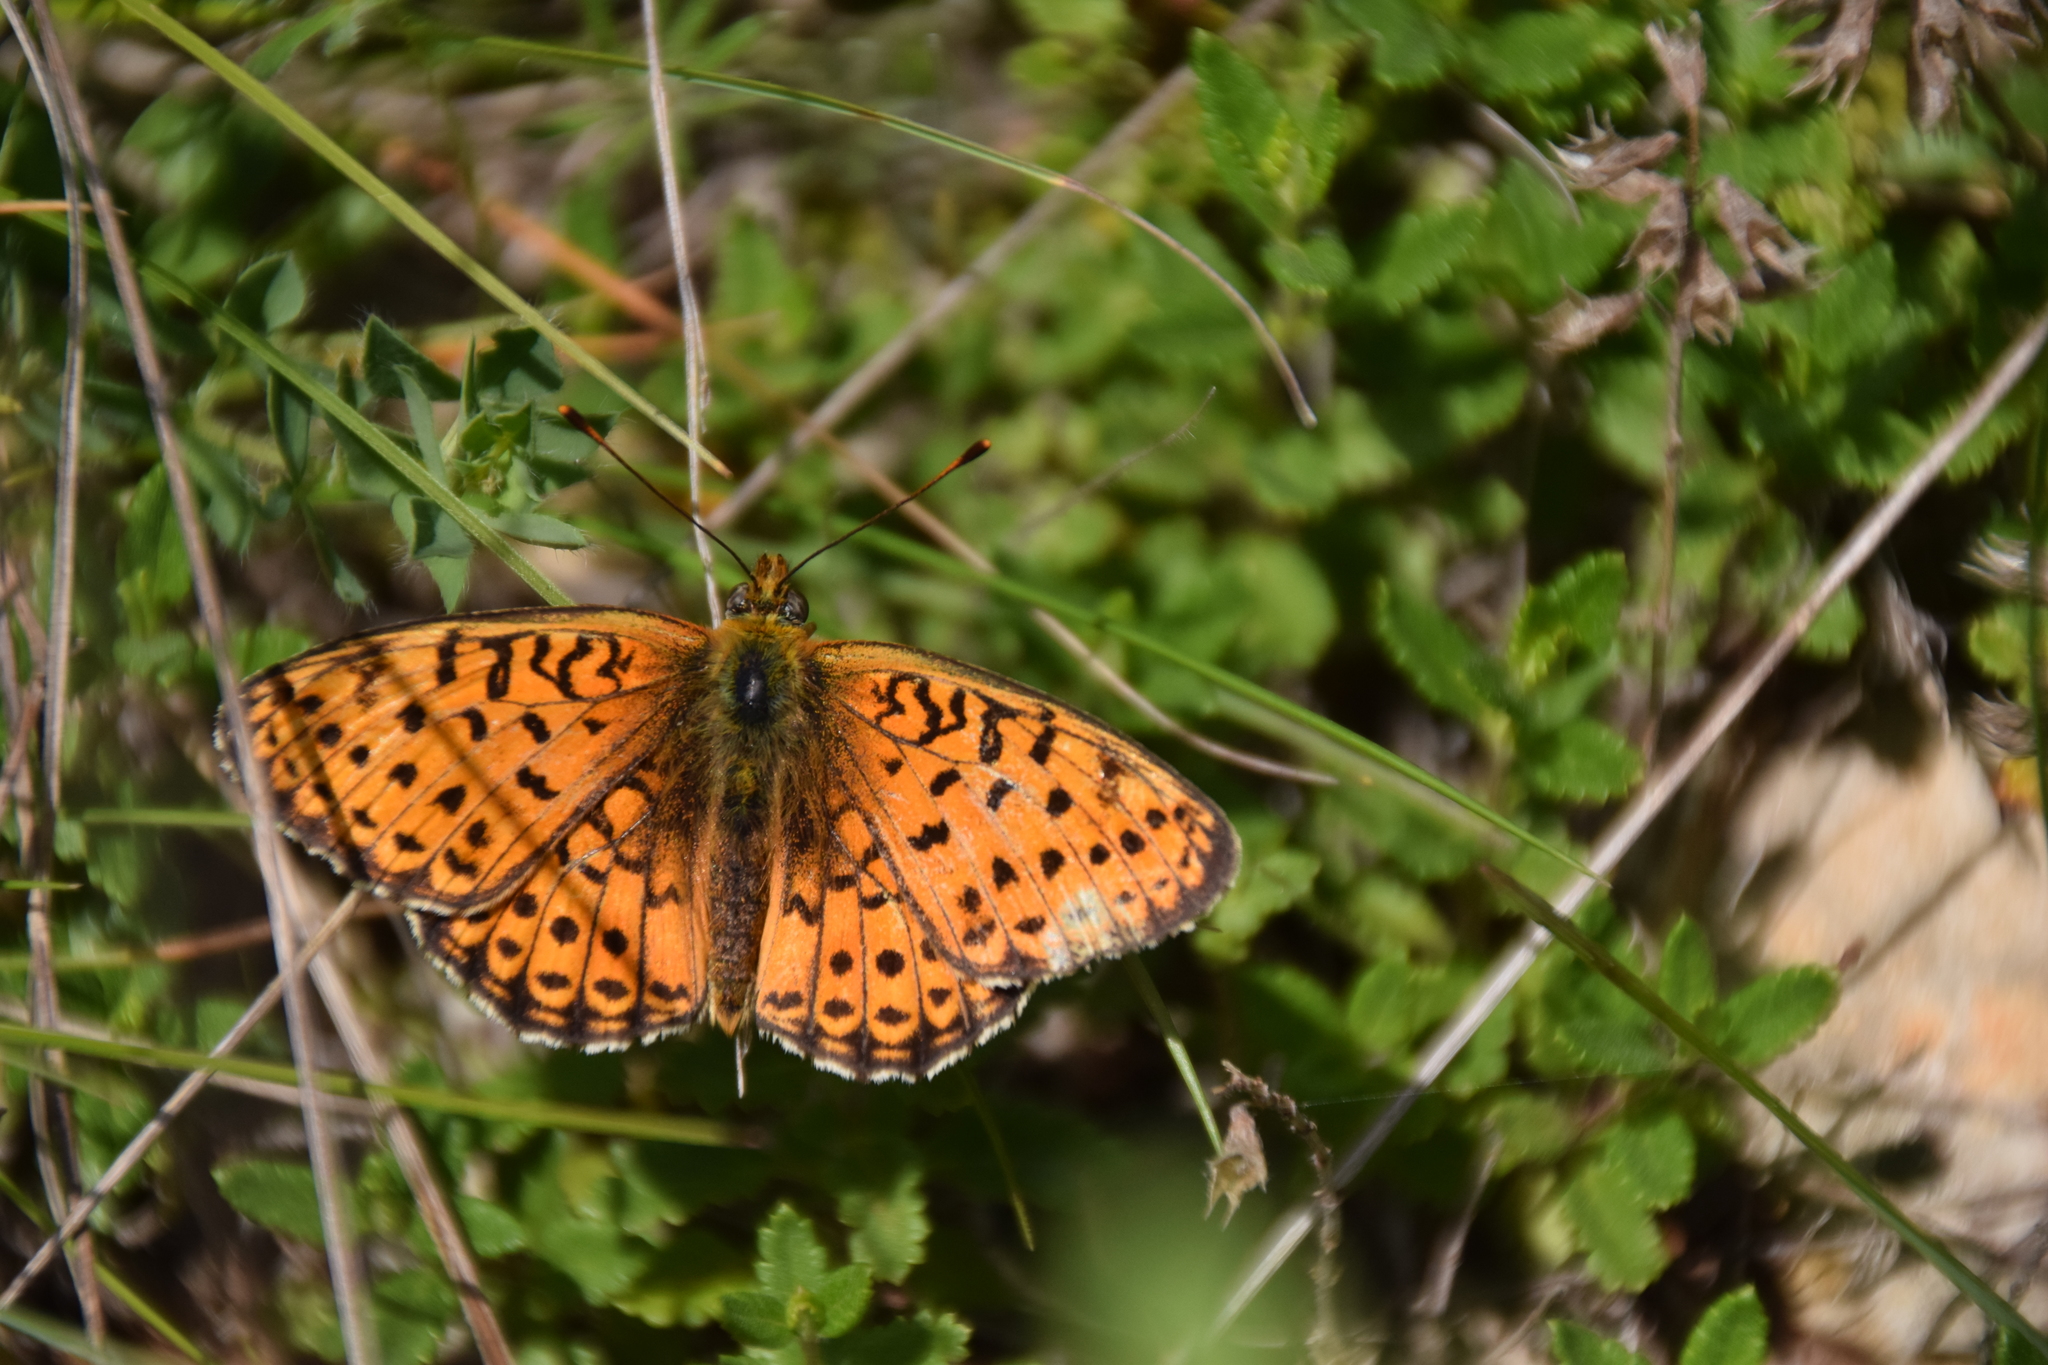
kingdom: Animalia
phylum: Arthropoda
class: Insecta
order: Lepidoptera
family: Nymphalidae
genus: Brenthis
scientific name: Brenthis hecate
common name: Twin-spot fritillary
